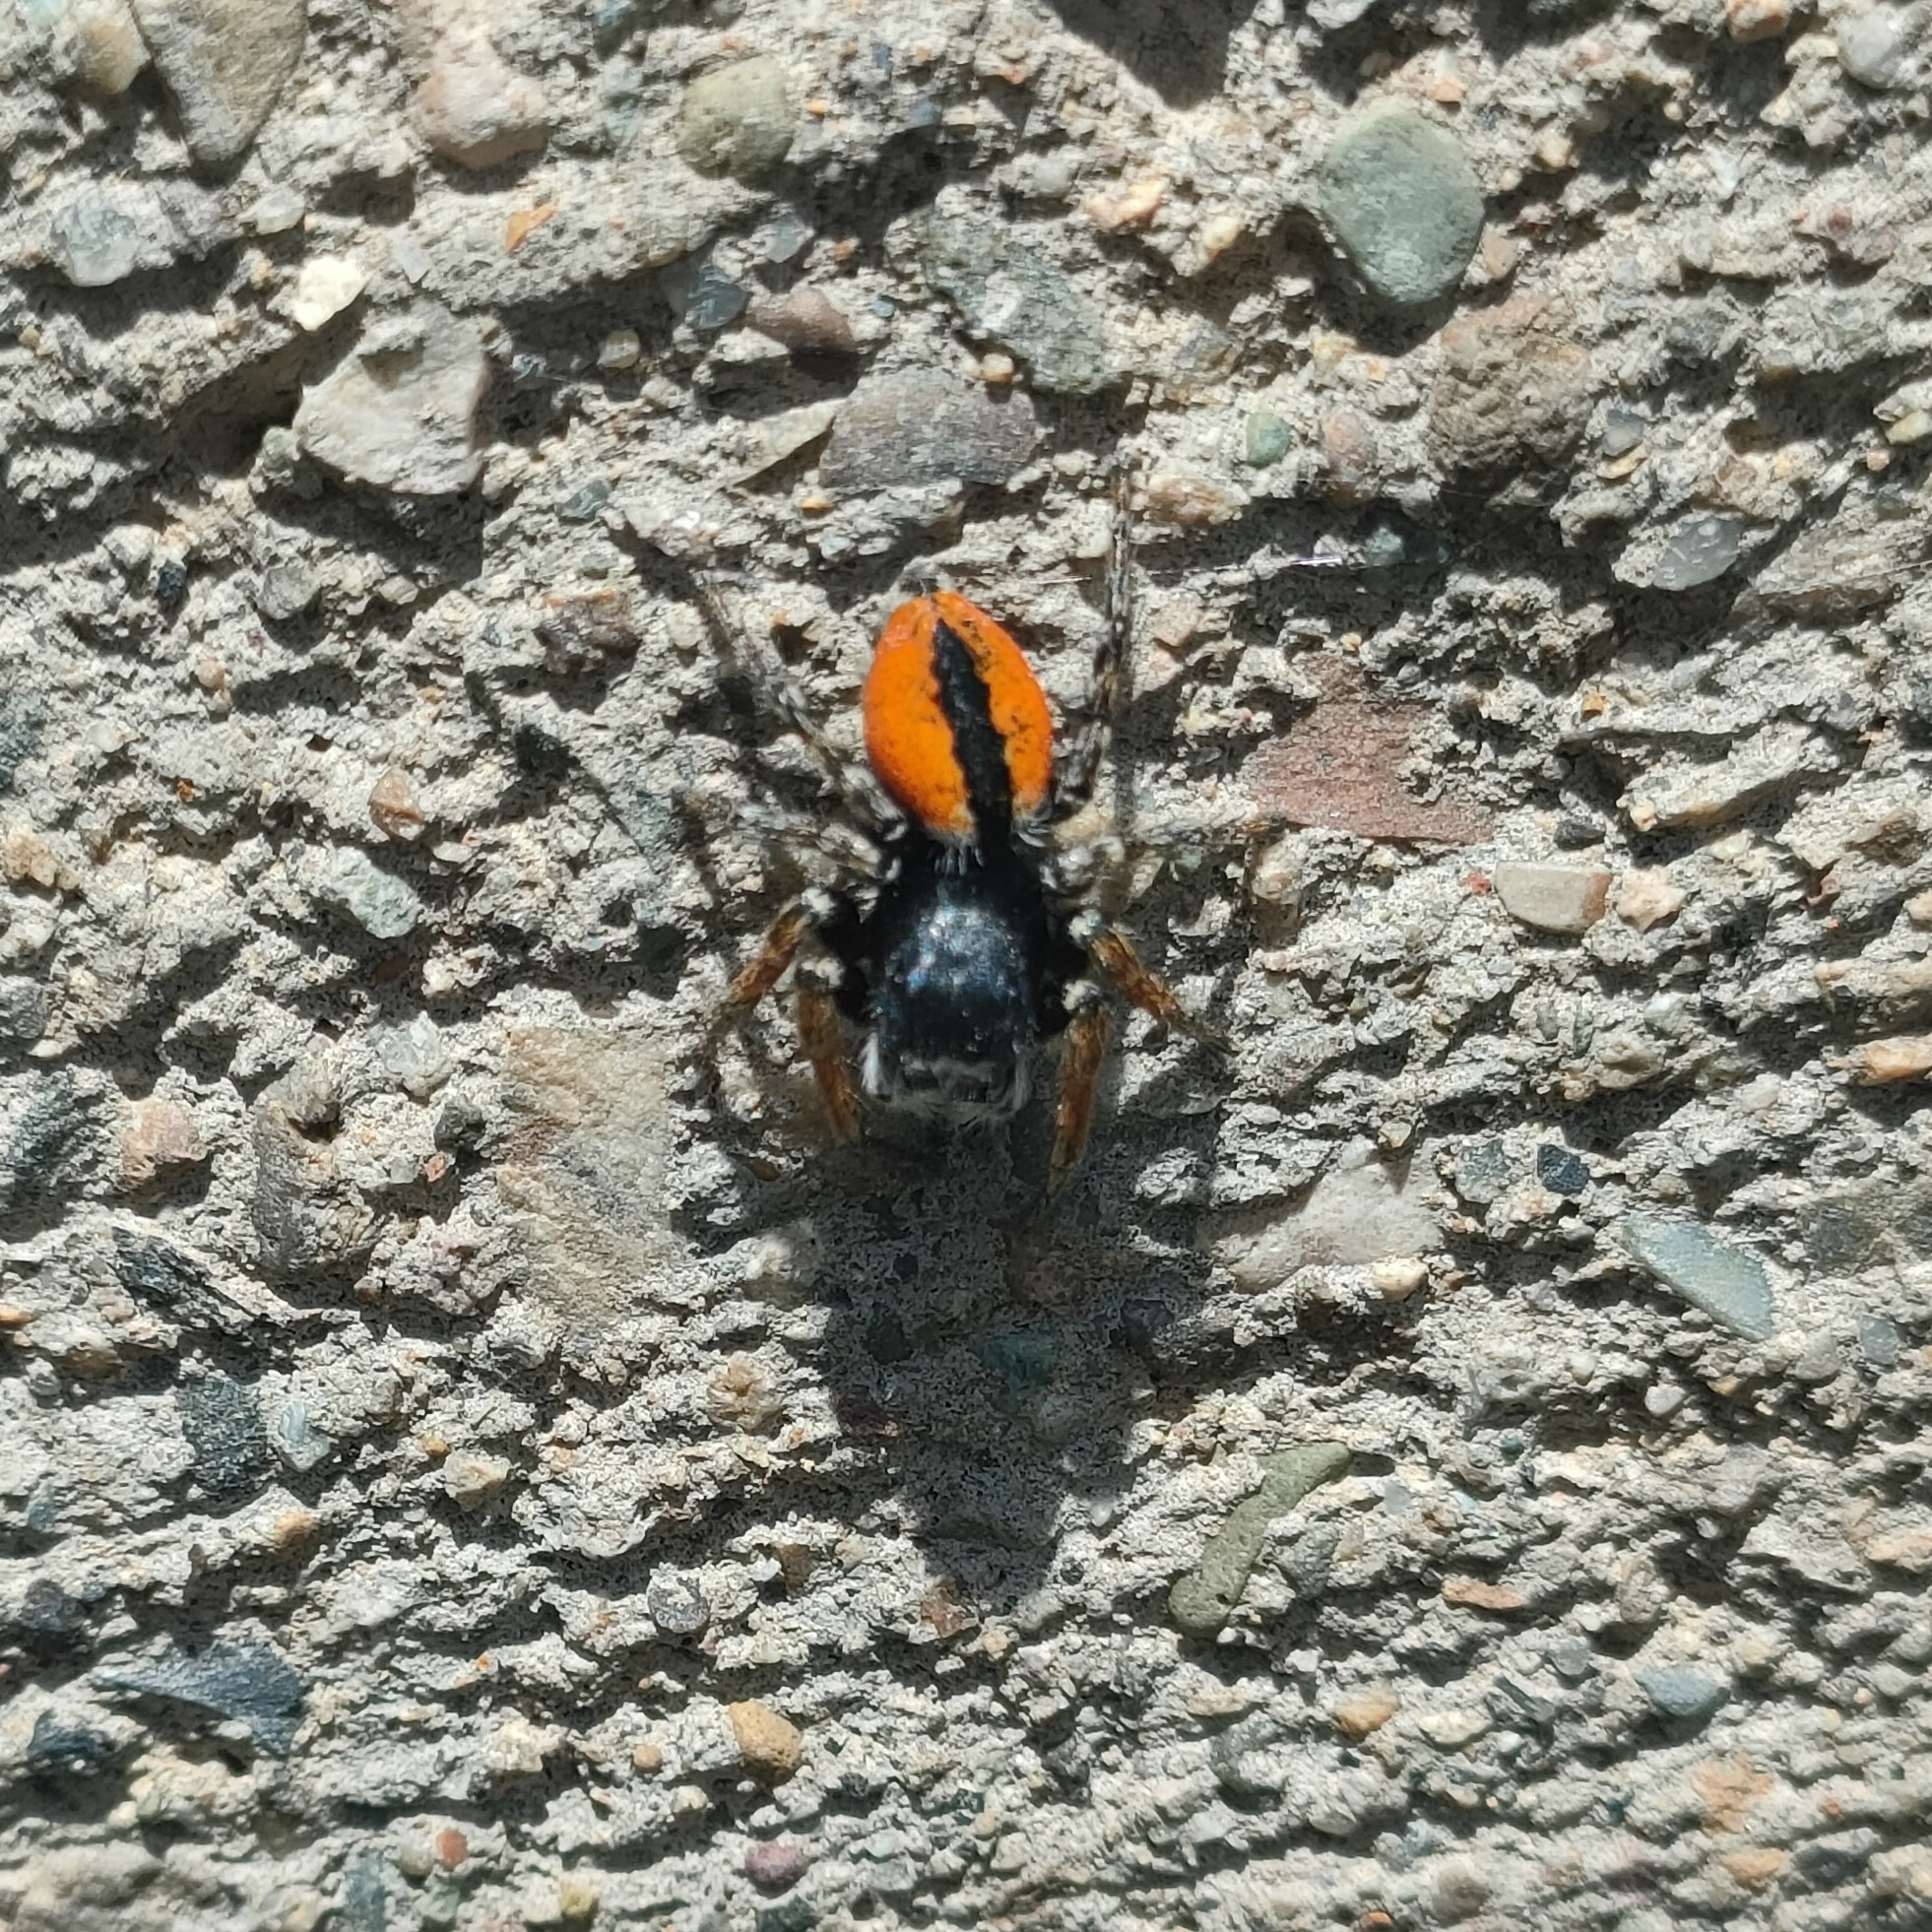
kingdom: Animalia
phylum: Arthropoda
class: Arachnida
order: Araneae
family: Salticidae
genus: Philaeus
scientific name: Philaeus chrysops
